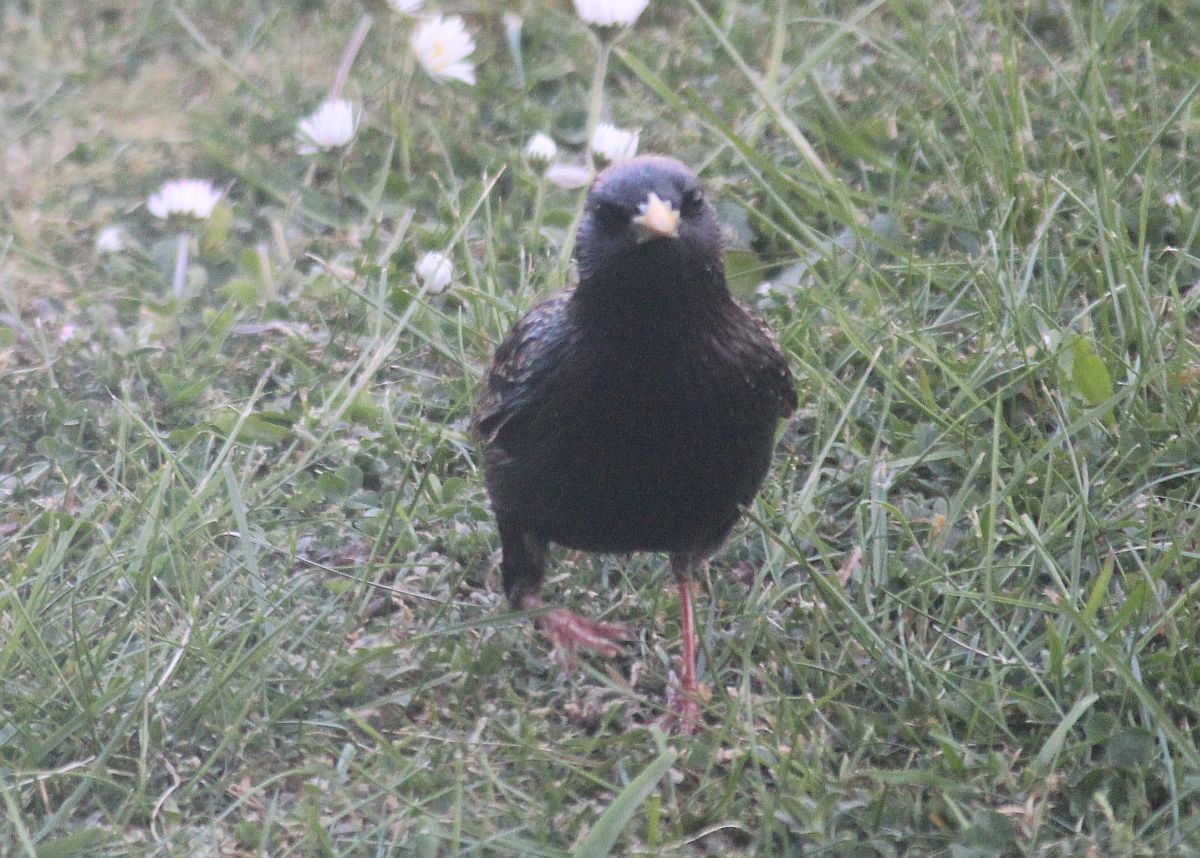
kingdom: Animalia
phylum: Chordata
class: Aves
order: Passeriformes
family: Sturnidae
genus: Sturnus
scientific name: Sturnus vulgaris
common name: Common starling
